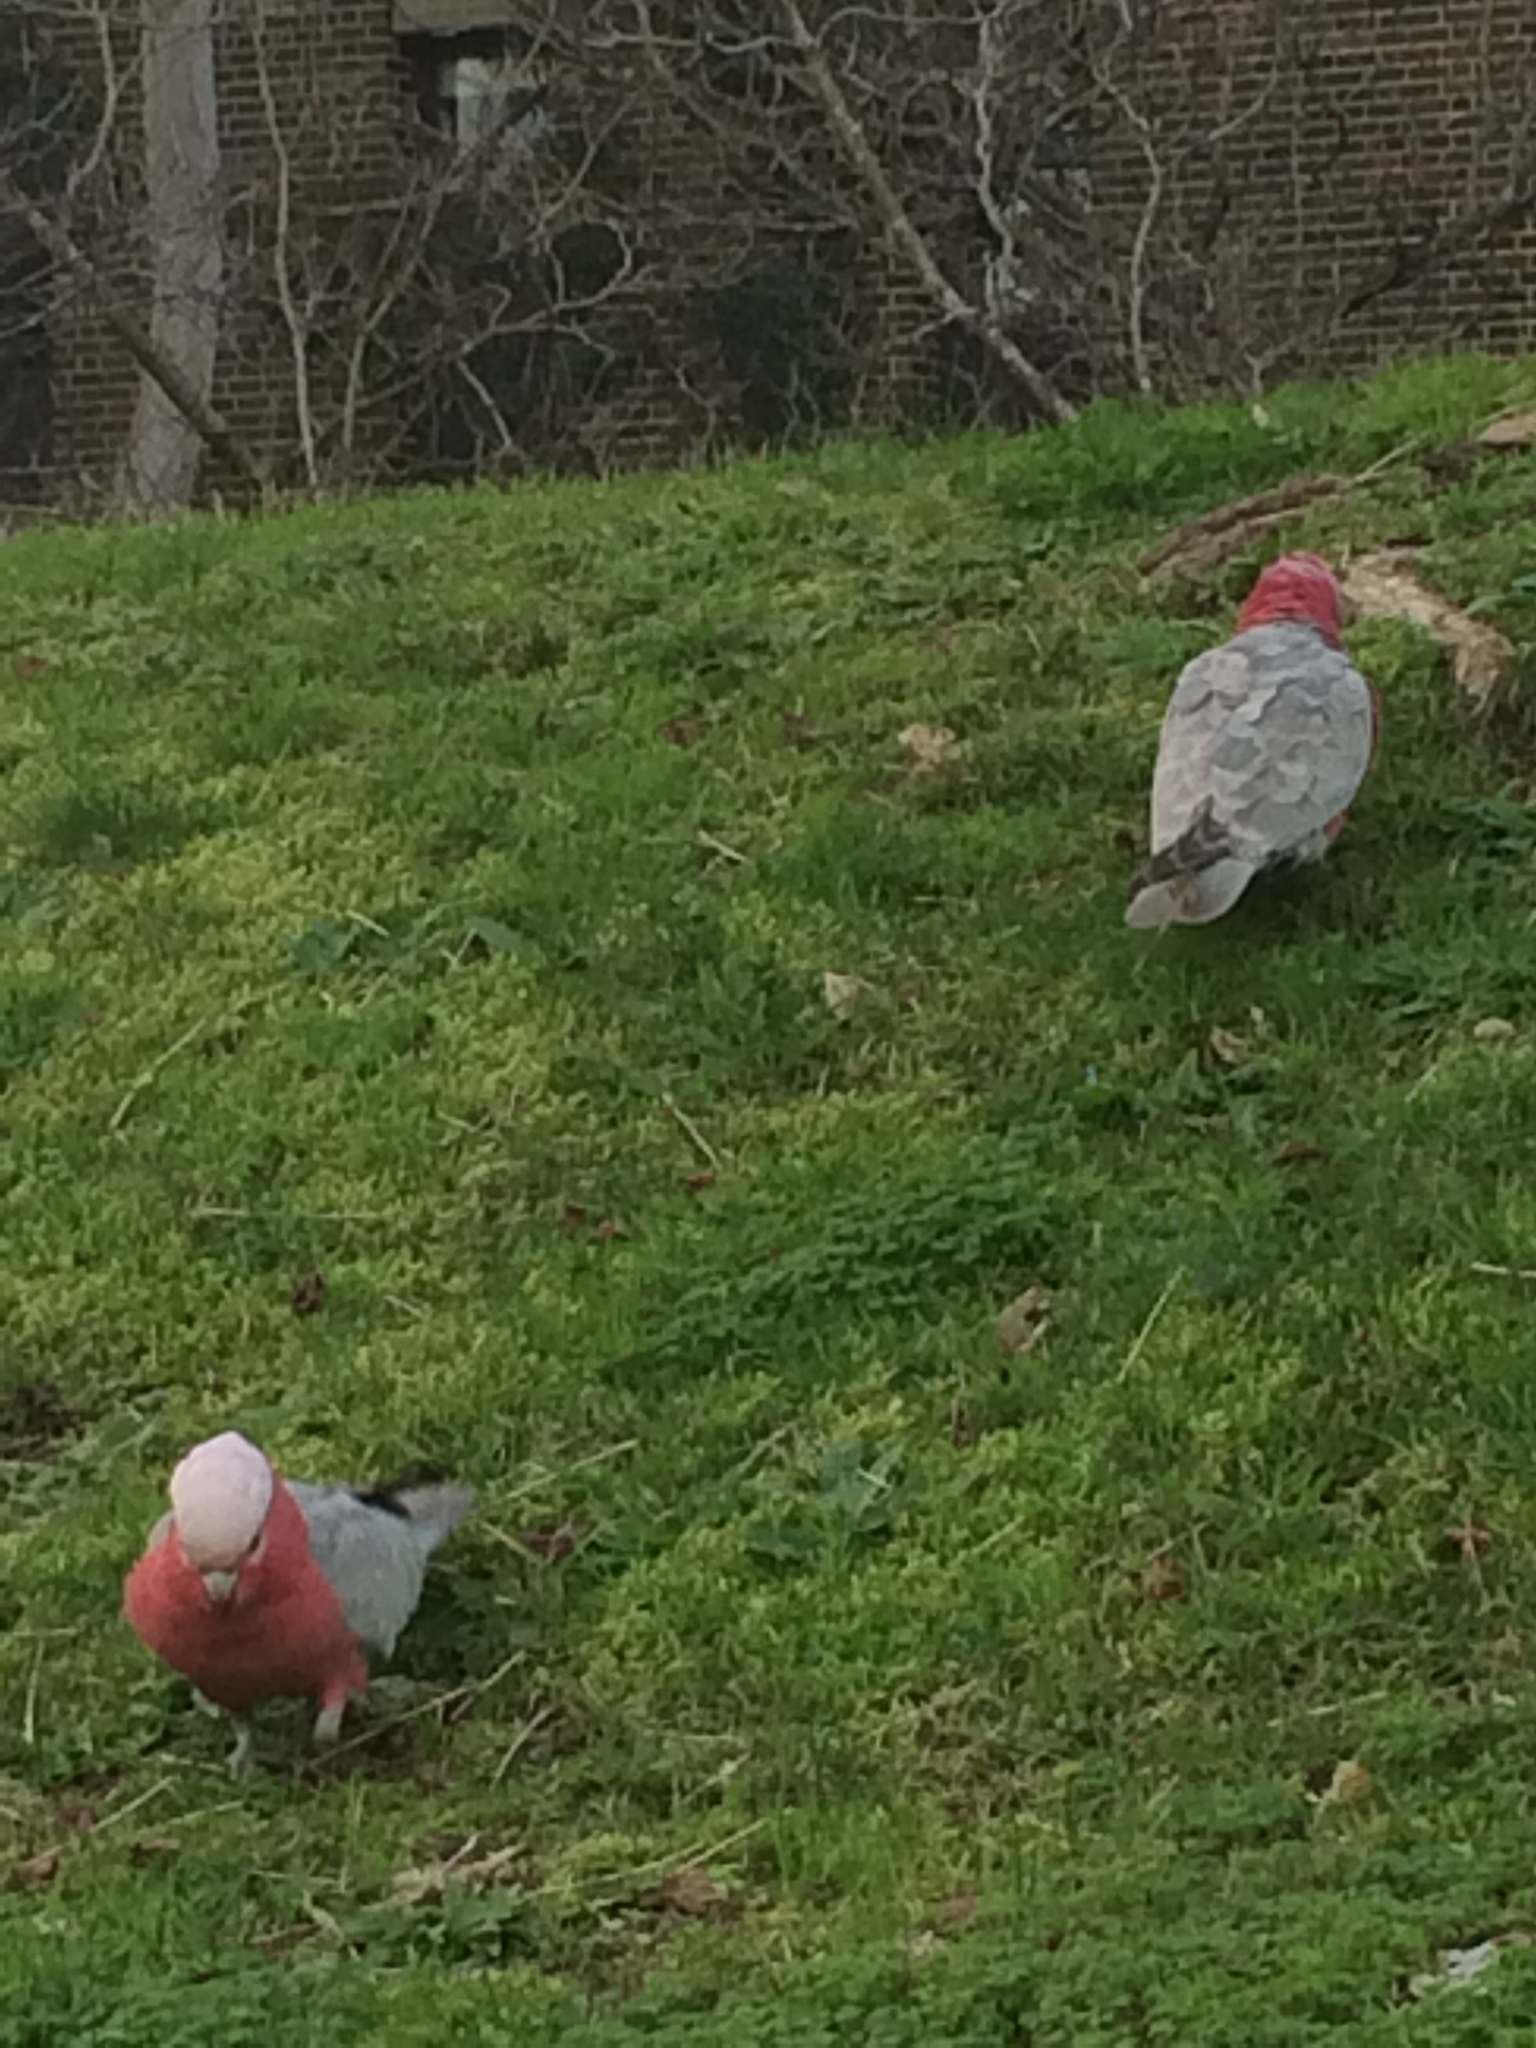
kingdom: Animalia
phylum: Chordata
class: Aves
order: Psittaciformes
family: Psittacidae
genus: Eolophus
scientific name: Eolophus roseicapilla
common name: Galah
